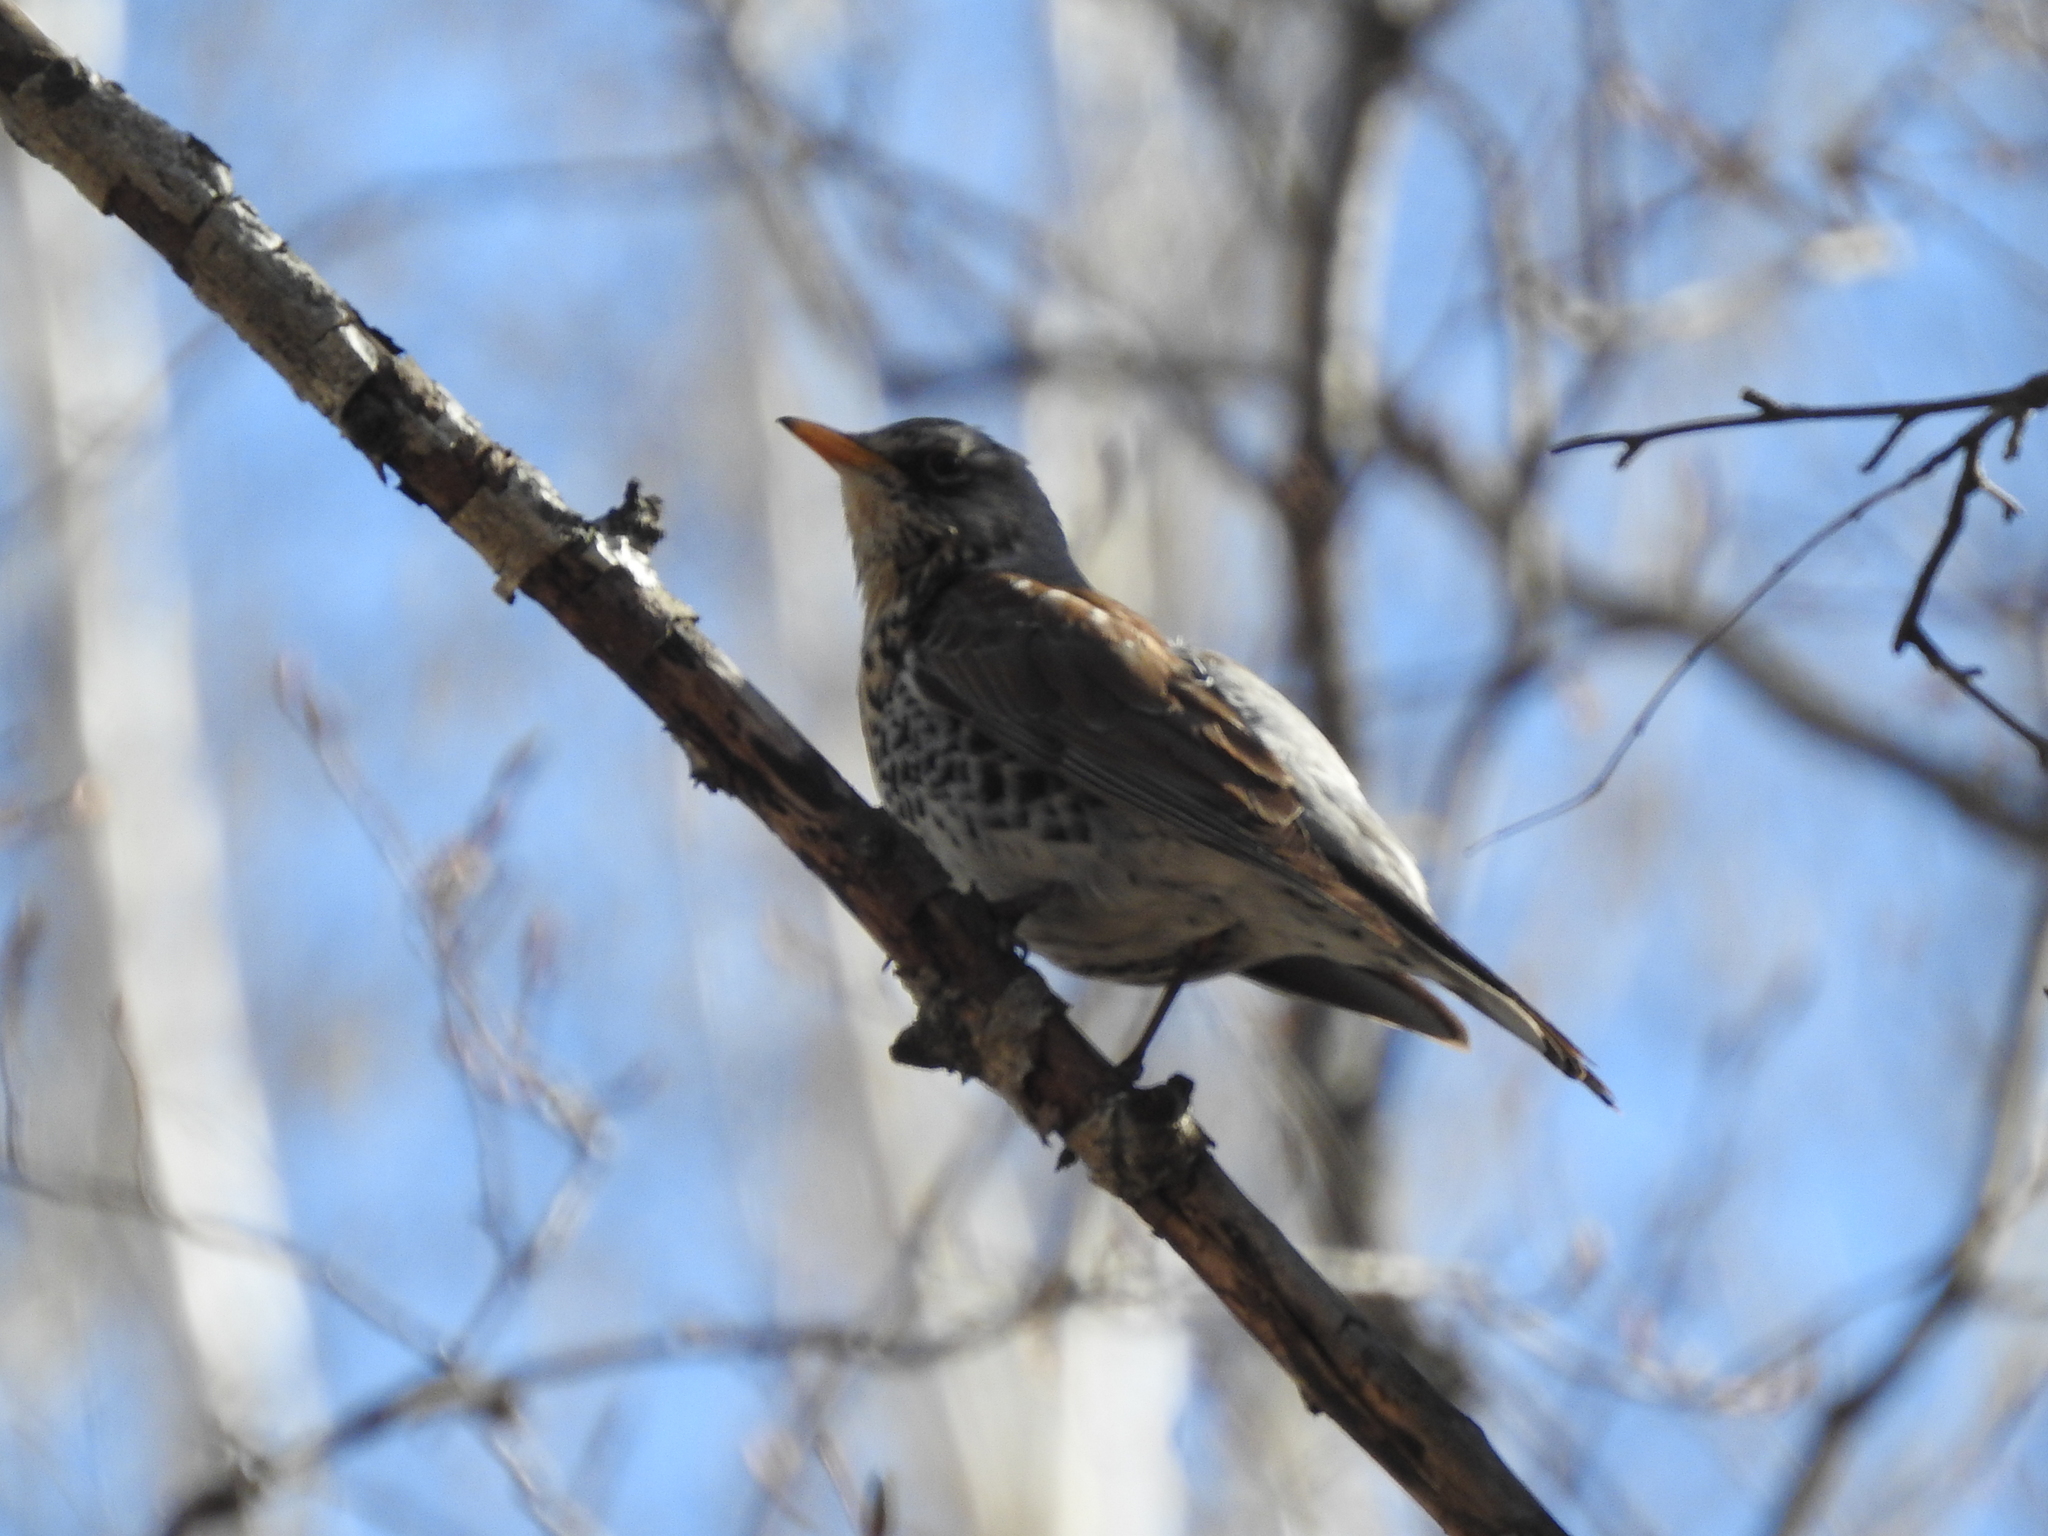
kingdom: Animalia
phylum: Chordata
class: Aves
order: Passeriformes
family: Turdidae
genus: Turdus
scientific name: Turdus pilaris
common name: Fieldfare
